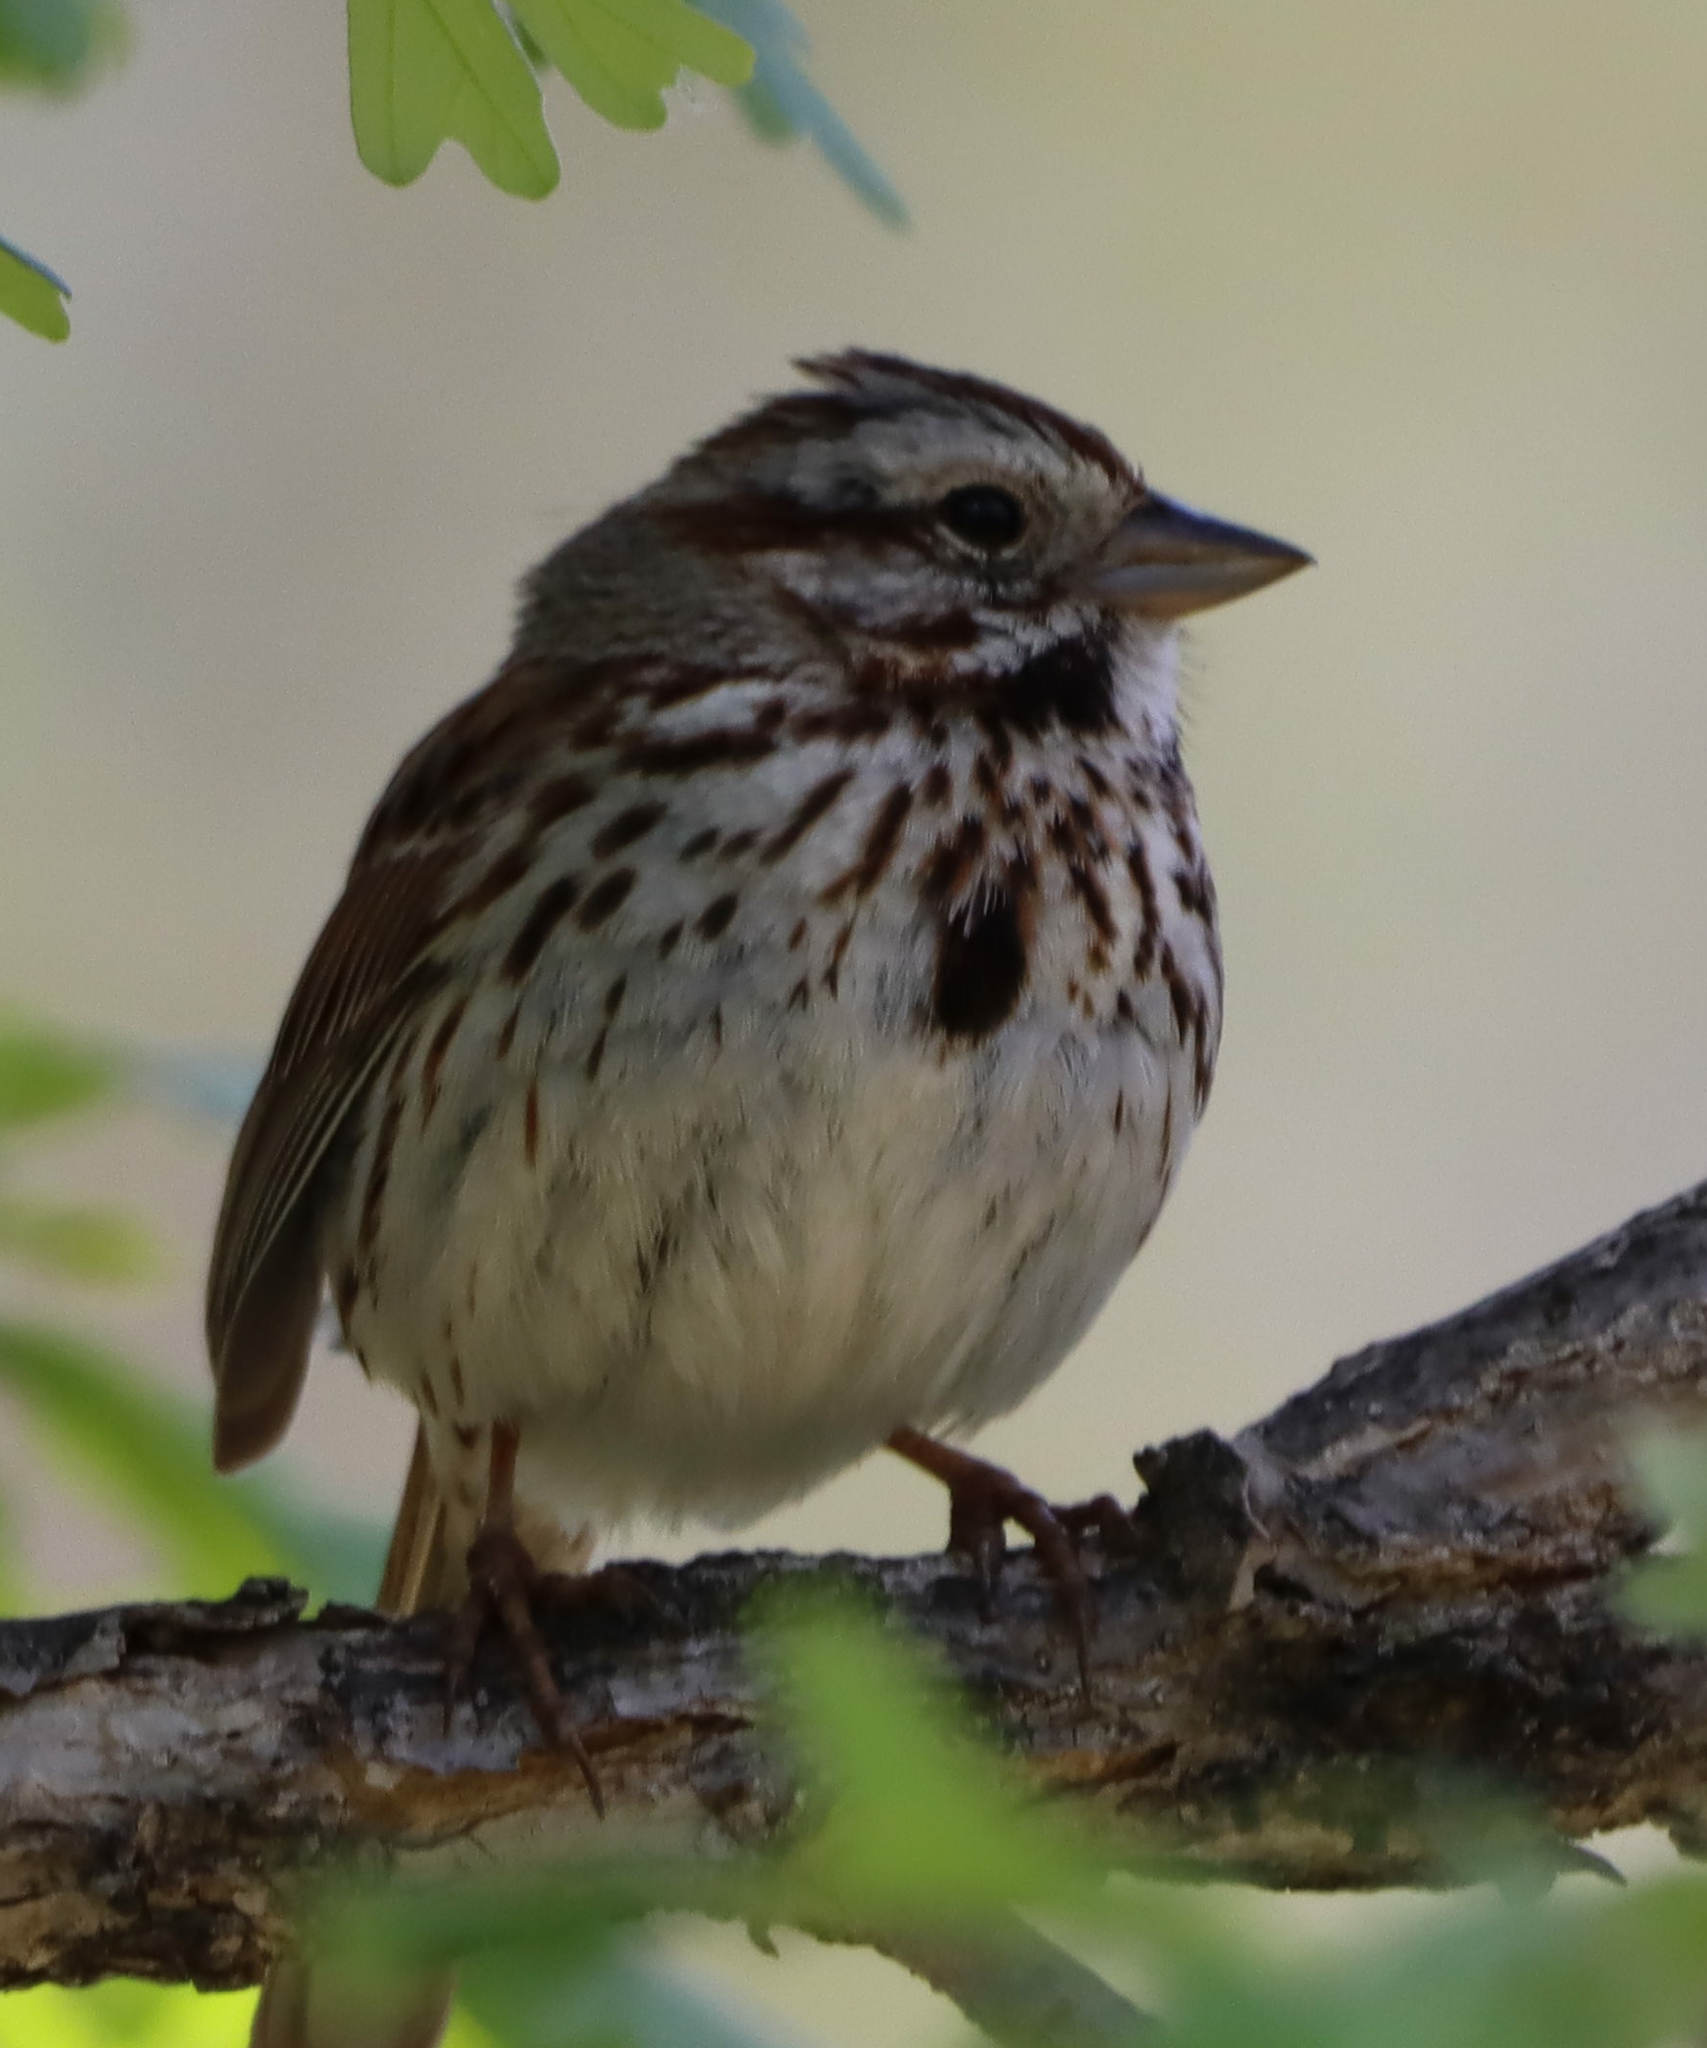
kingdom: Animalia
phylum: Chordata
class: Aves
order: Passeriformes
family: Passerellidae
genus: Melospiza
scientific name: Melospiza melodia
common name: Song sparrow
